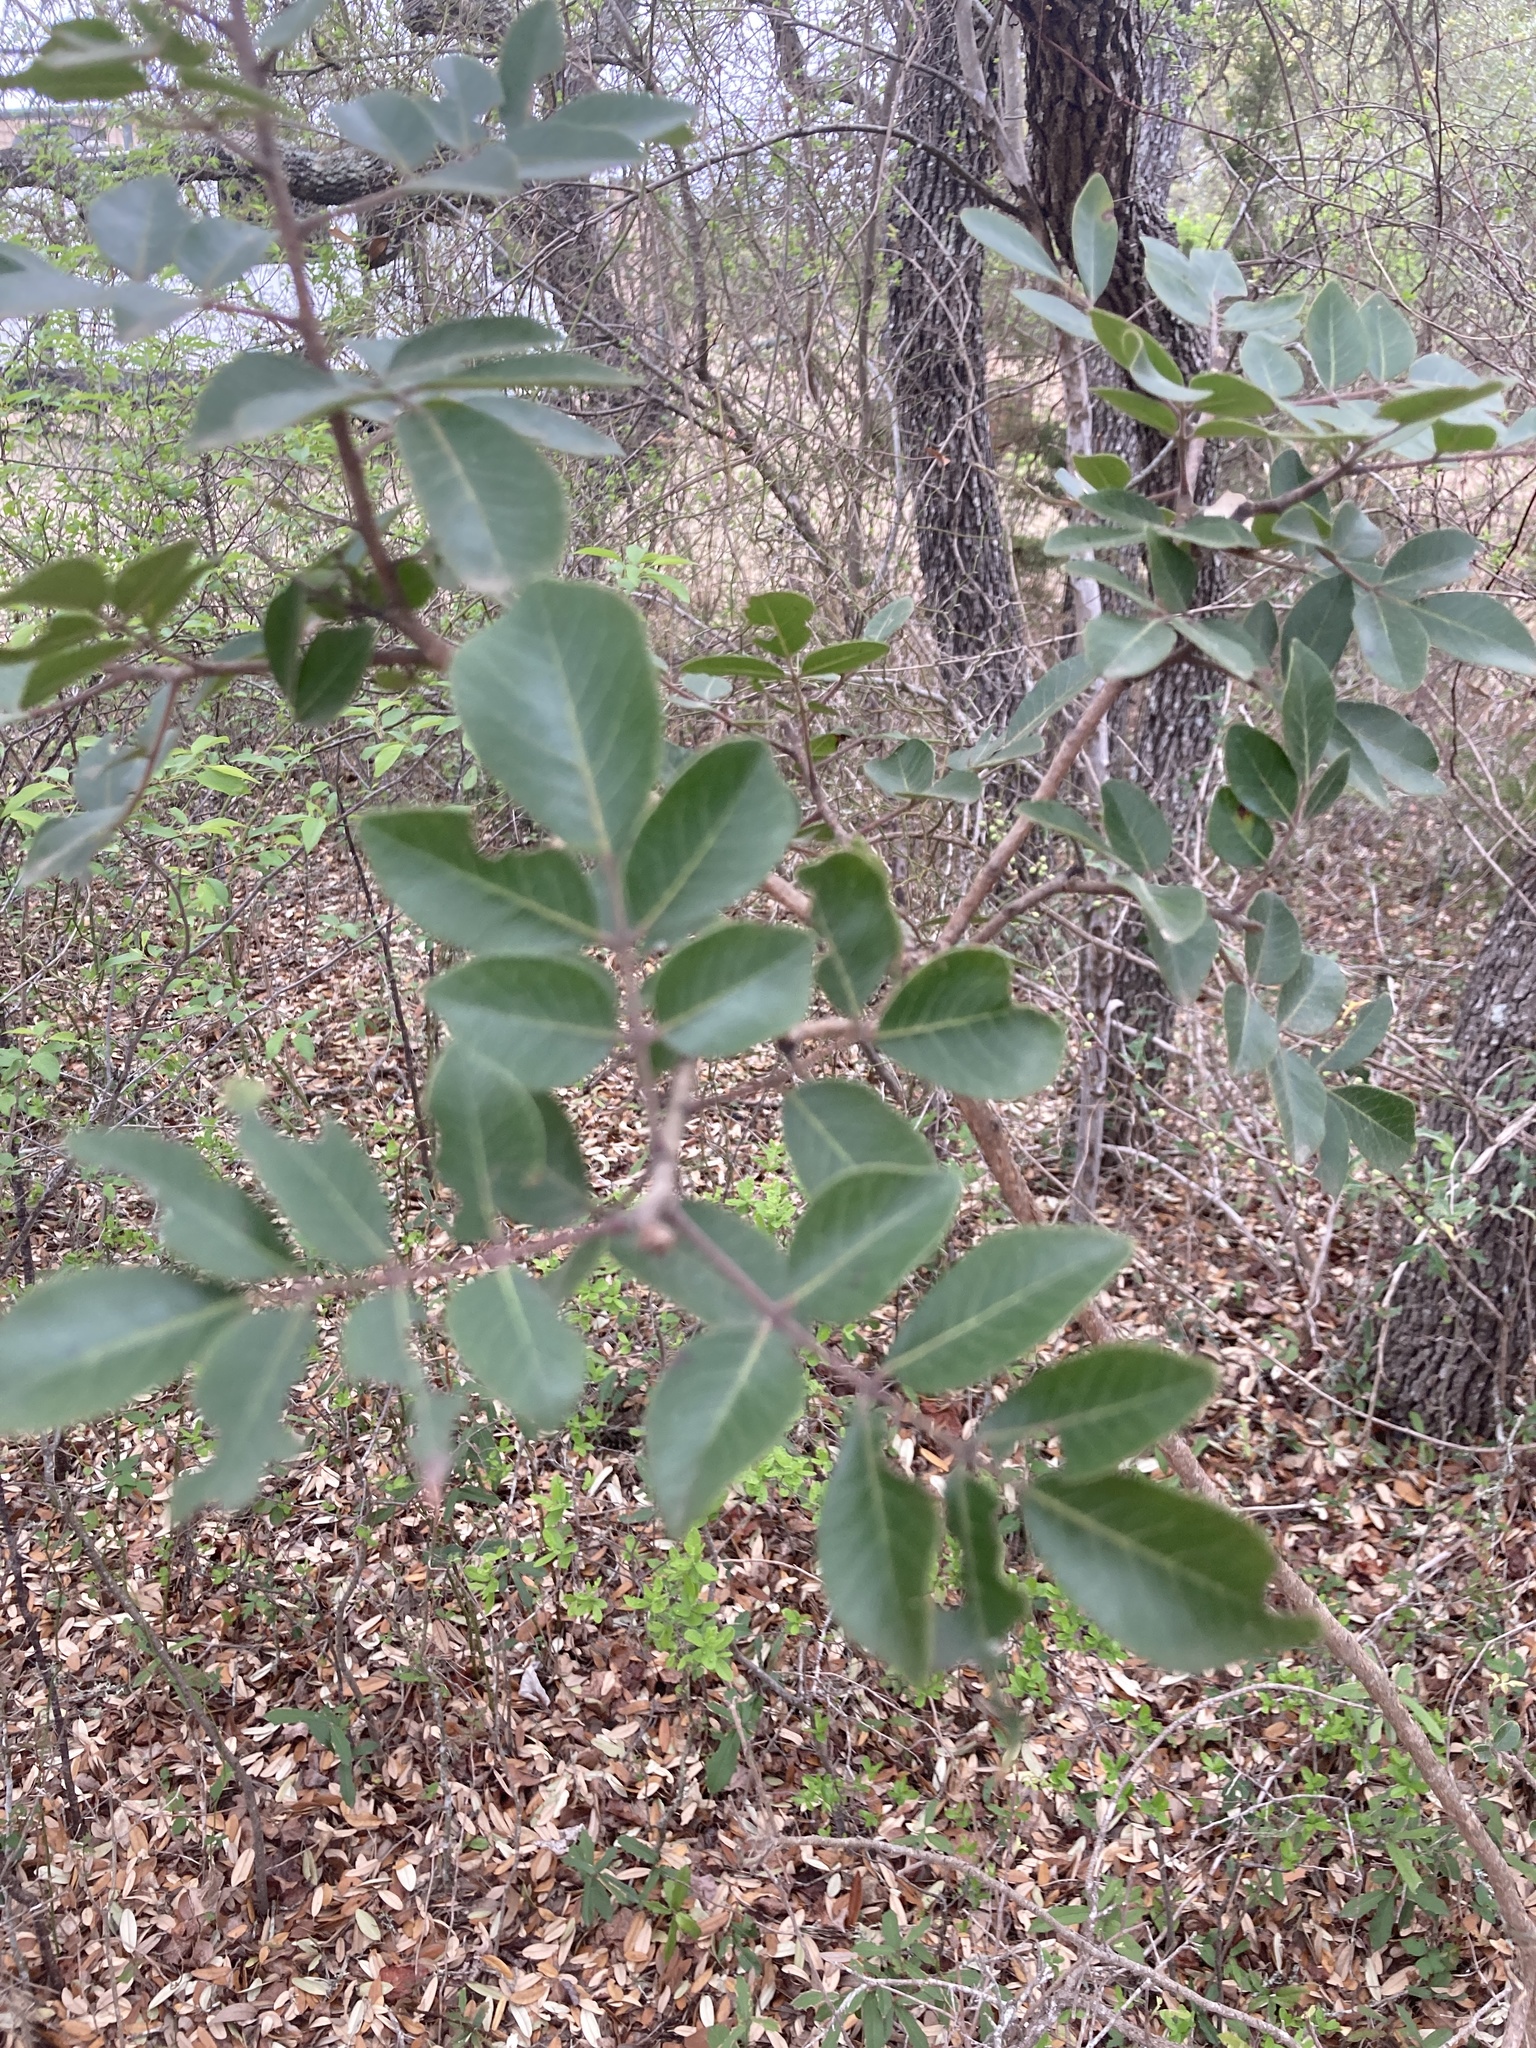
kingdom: Plantae
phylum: Tracheophyta
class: Magnoliopsida
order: Sapindales
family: Anacardiaceae
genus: Rhus
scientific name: Rhus virens
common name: Evergreen sumac
